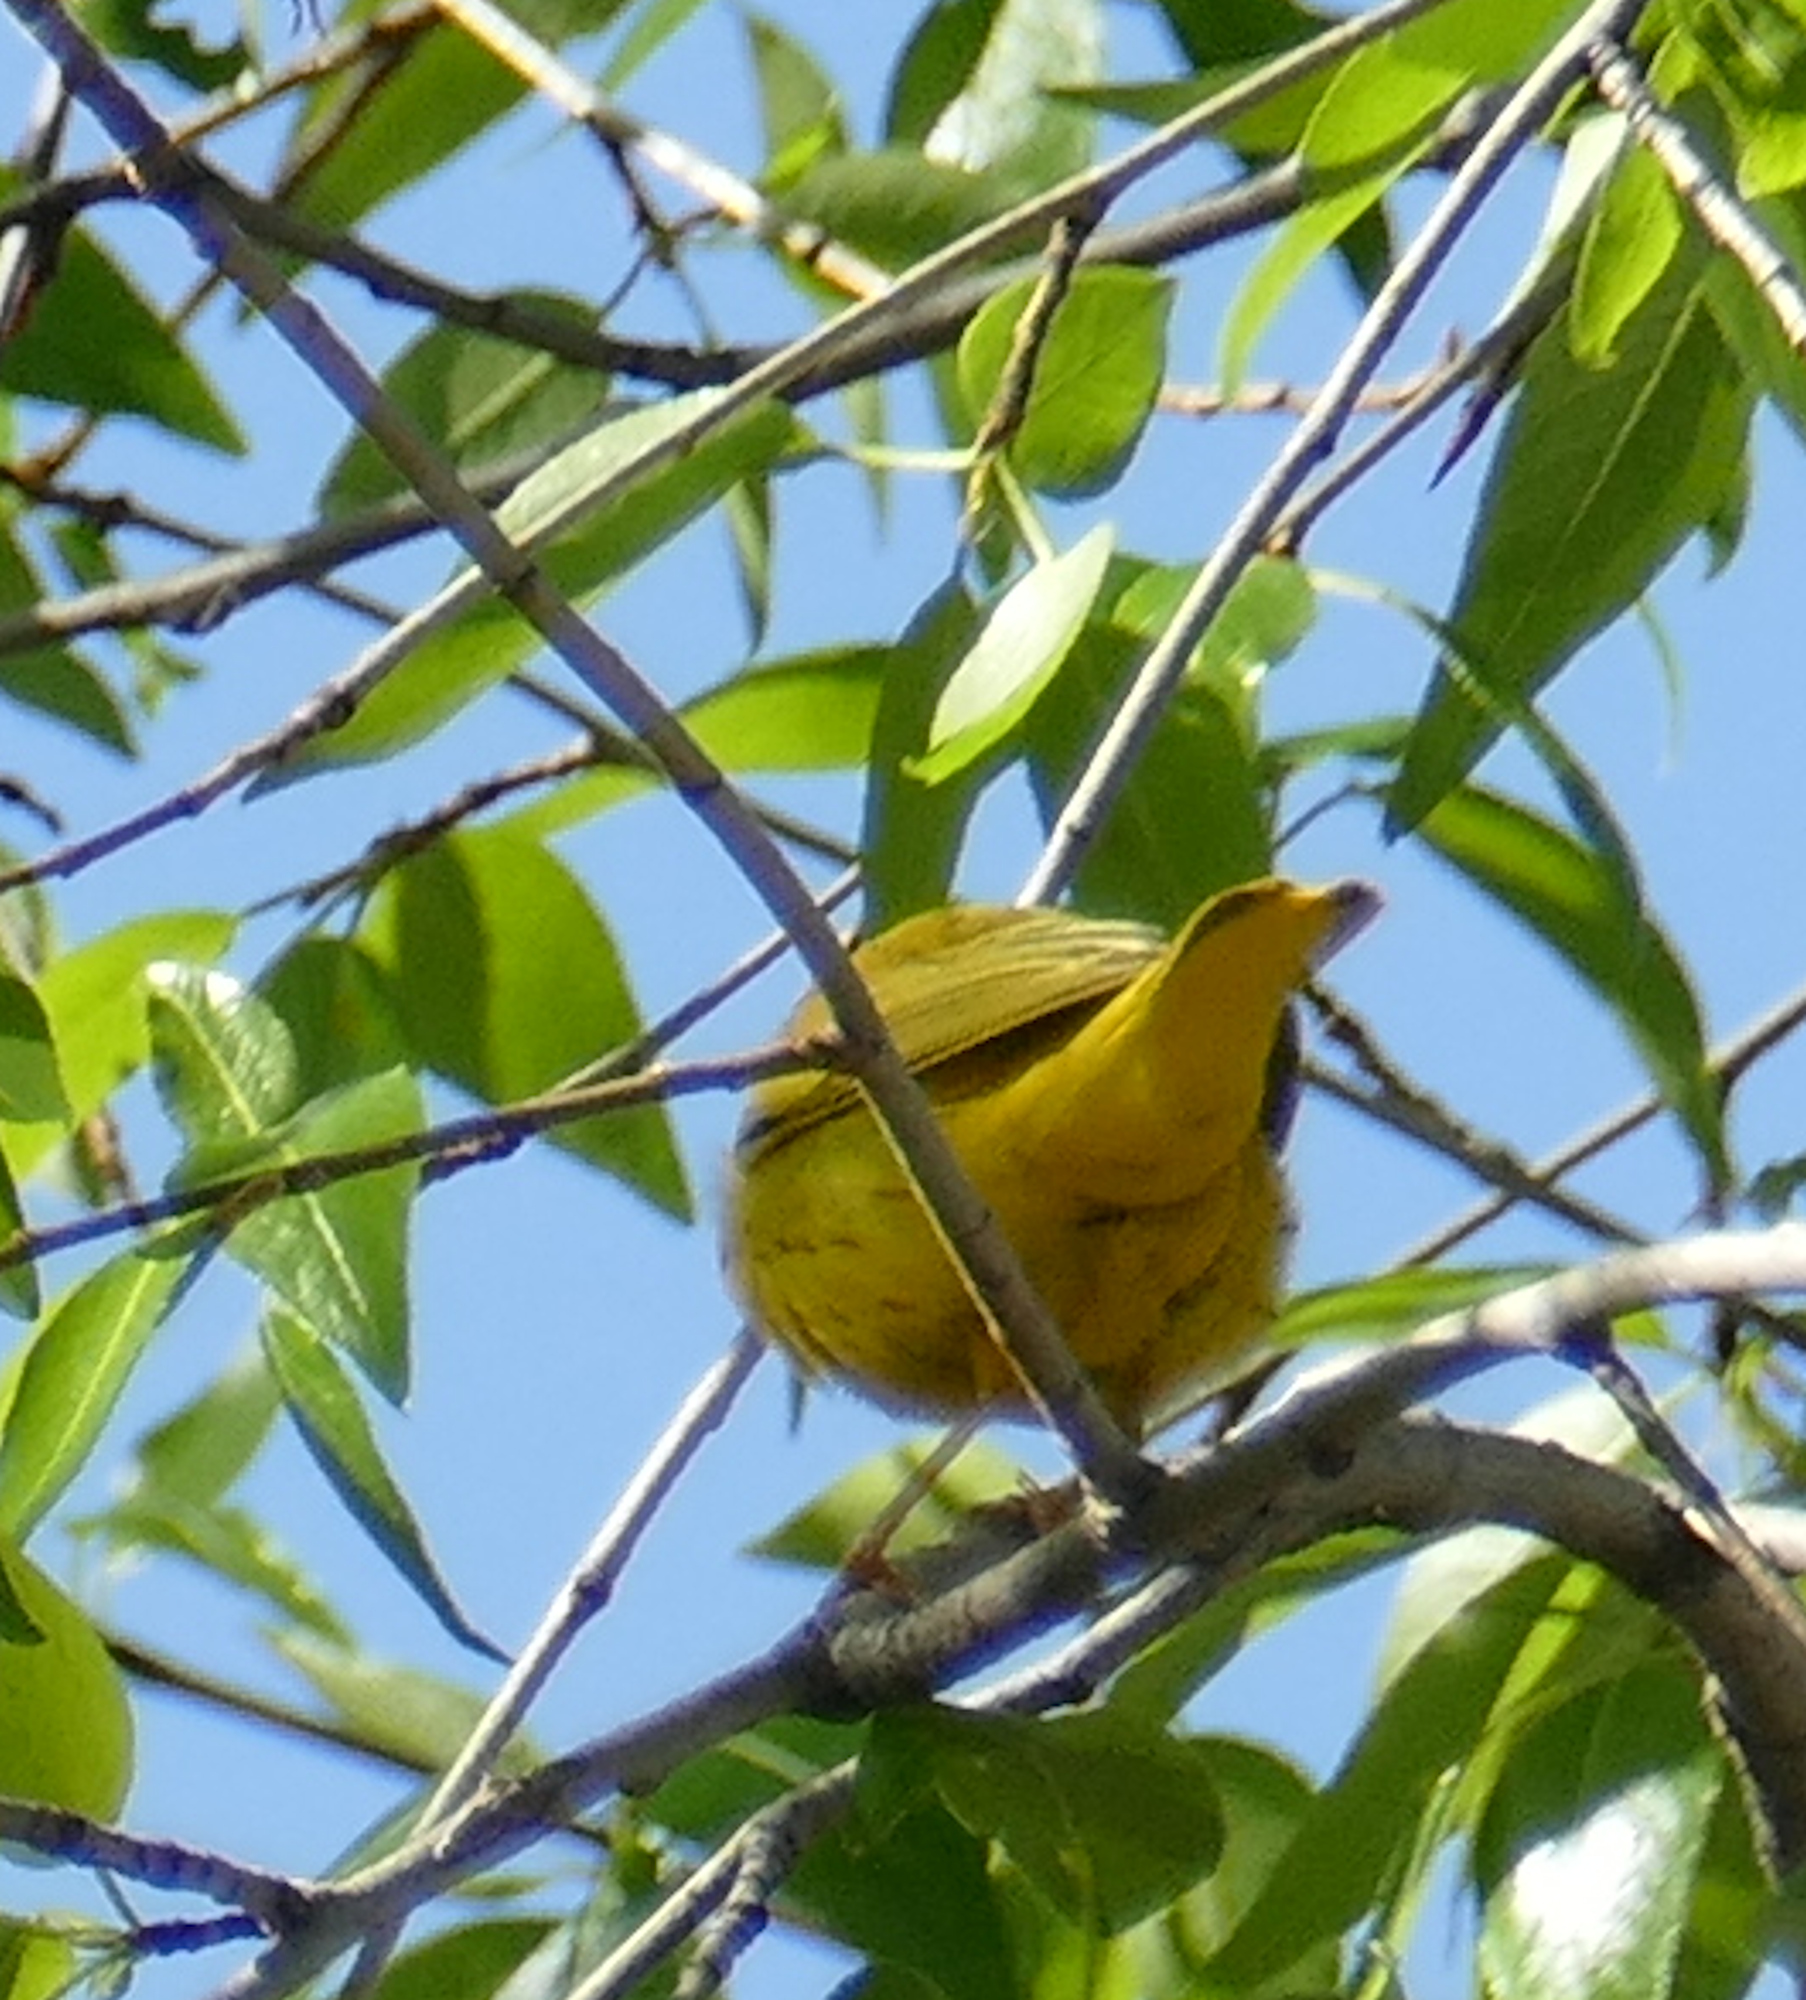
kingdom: Animalia
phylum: Chordata
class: Aves
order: Passeriformes
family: Parulidae
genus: Setophaga
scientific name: Setophaga petechia
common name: Yellow warbler
